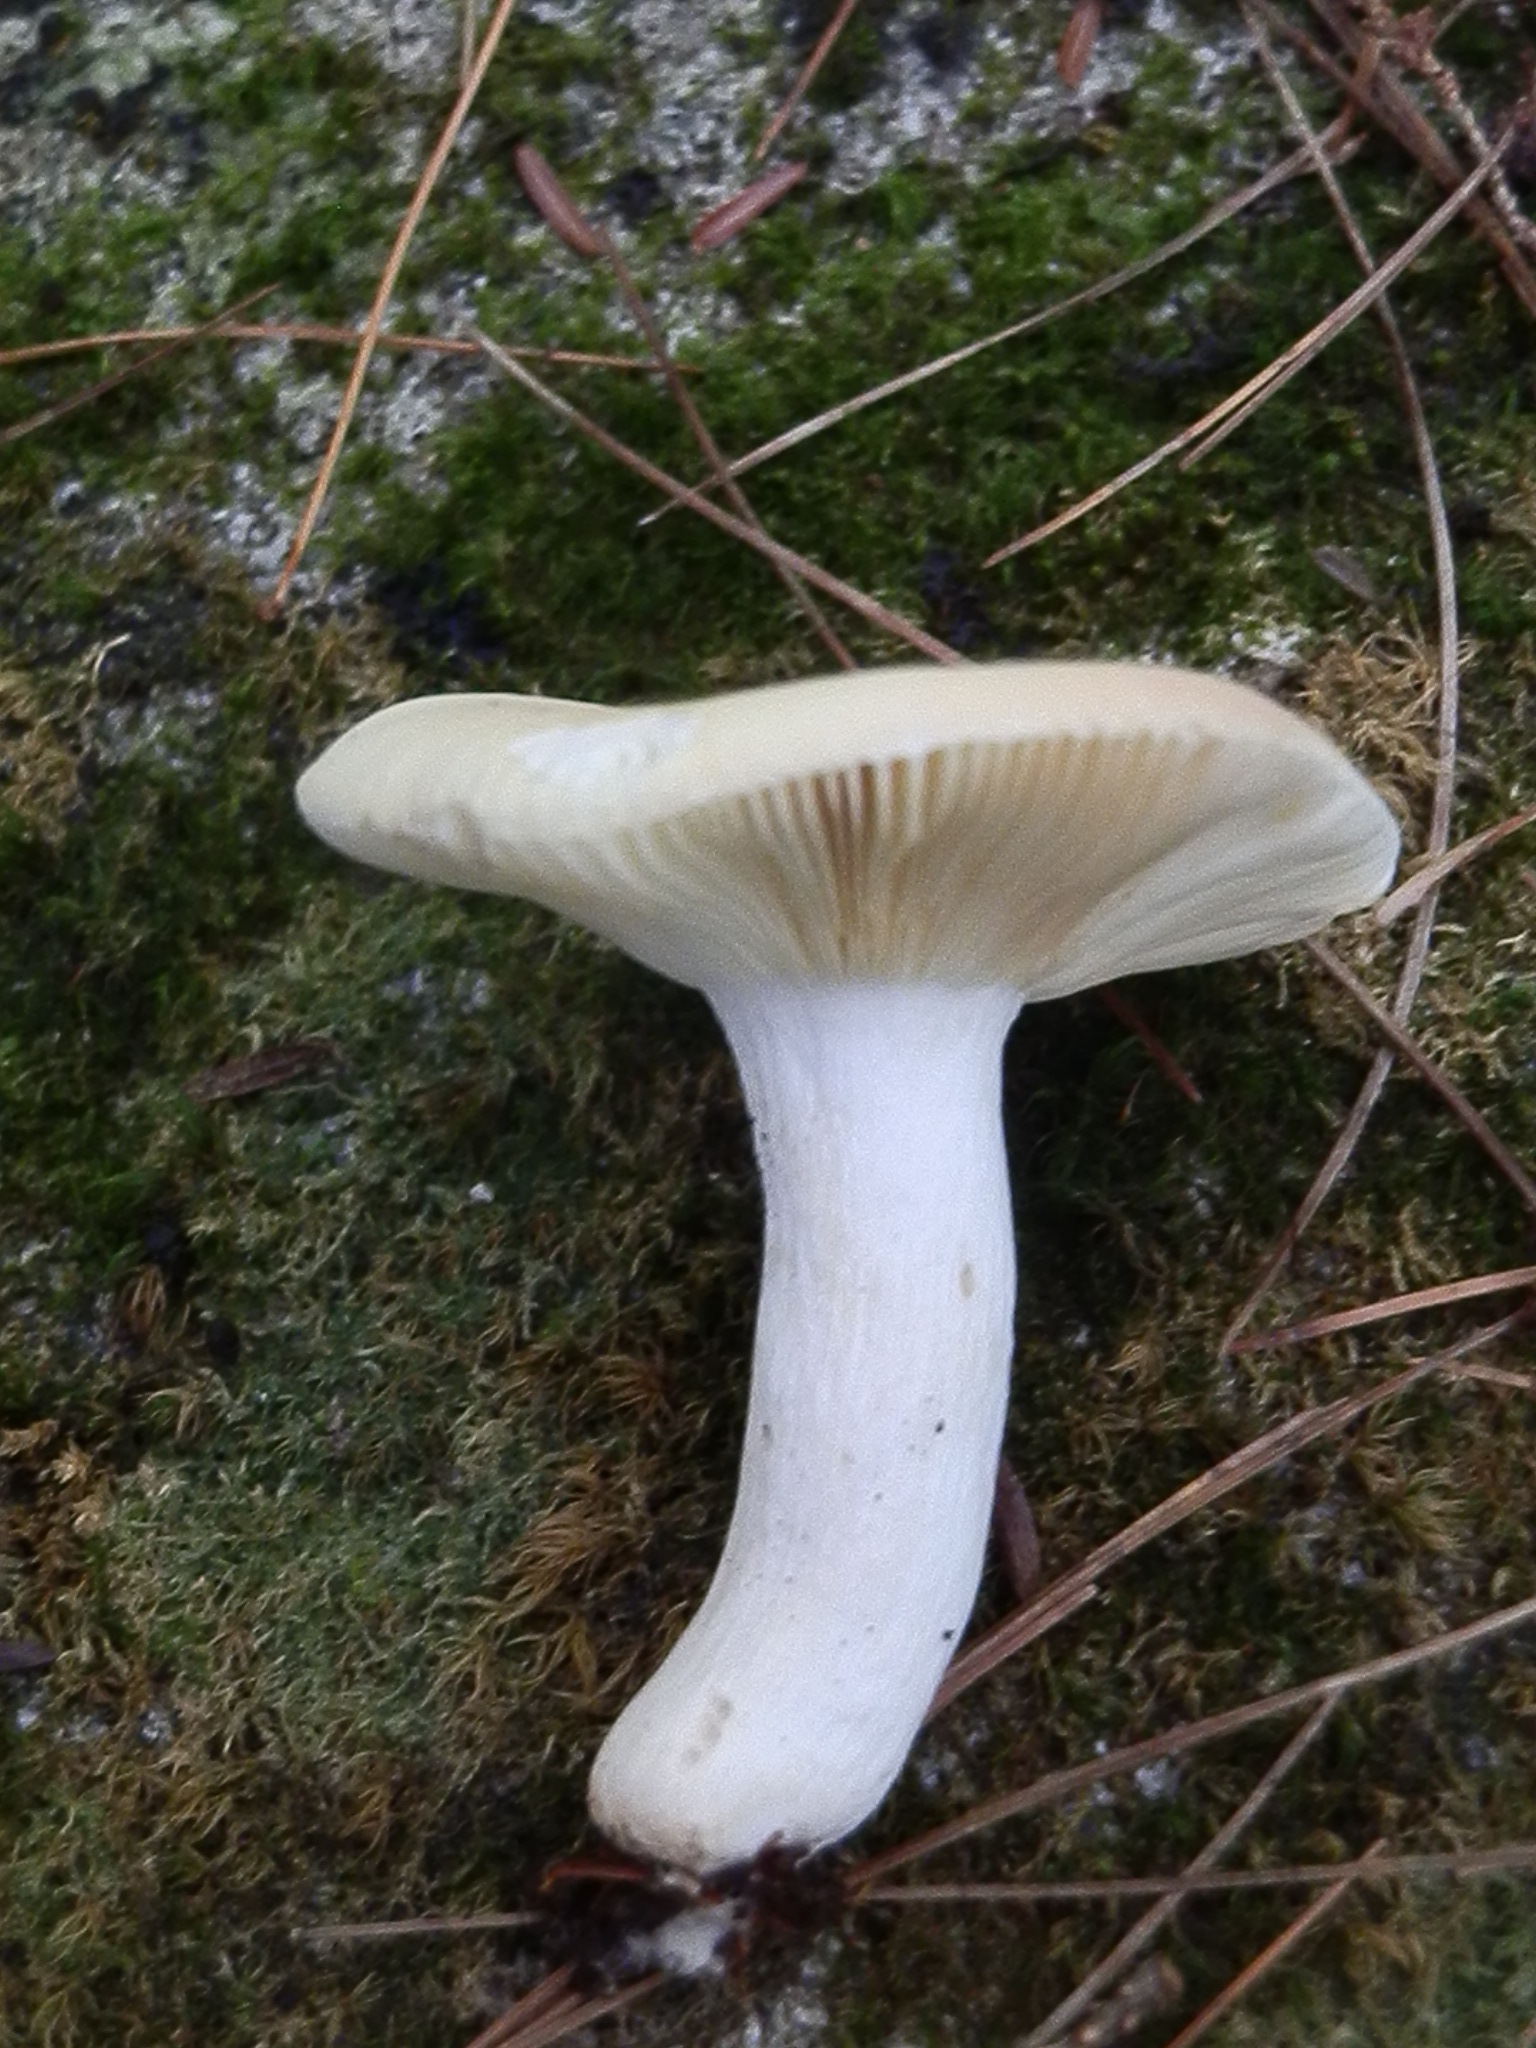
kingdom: Fungi
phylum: Basidiomycota
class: Agaricomycetes
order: Russulales
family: Russulaceae
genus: Russula
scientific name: Russula risigallina
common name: Golden brittlegill
